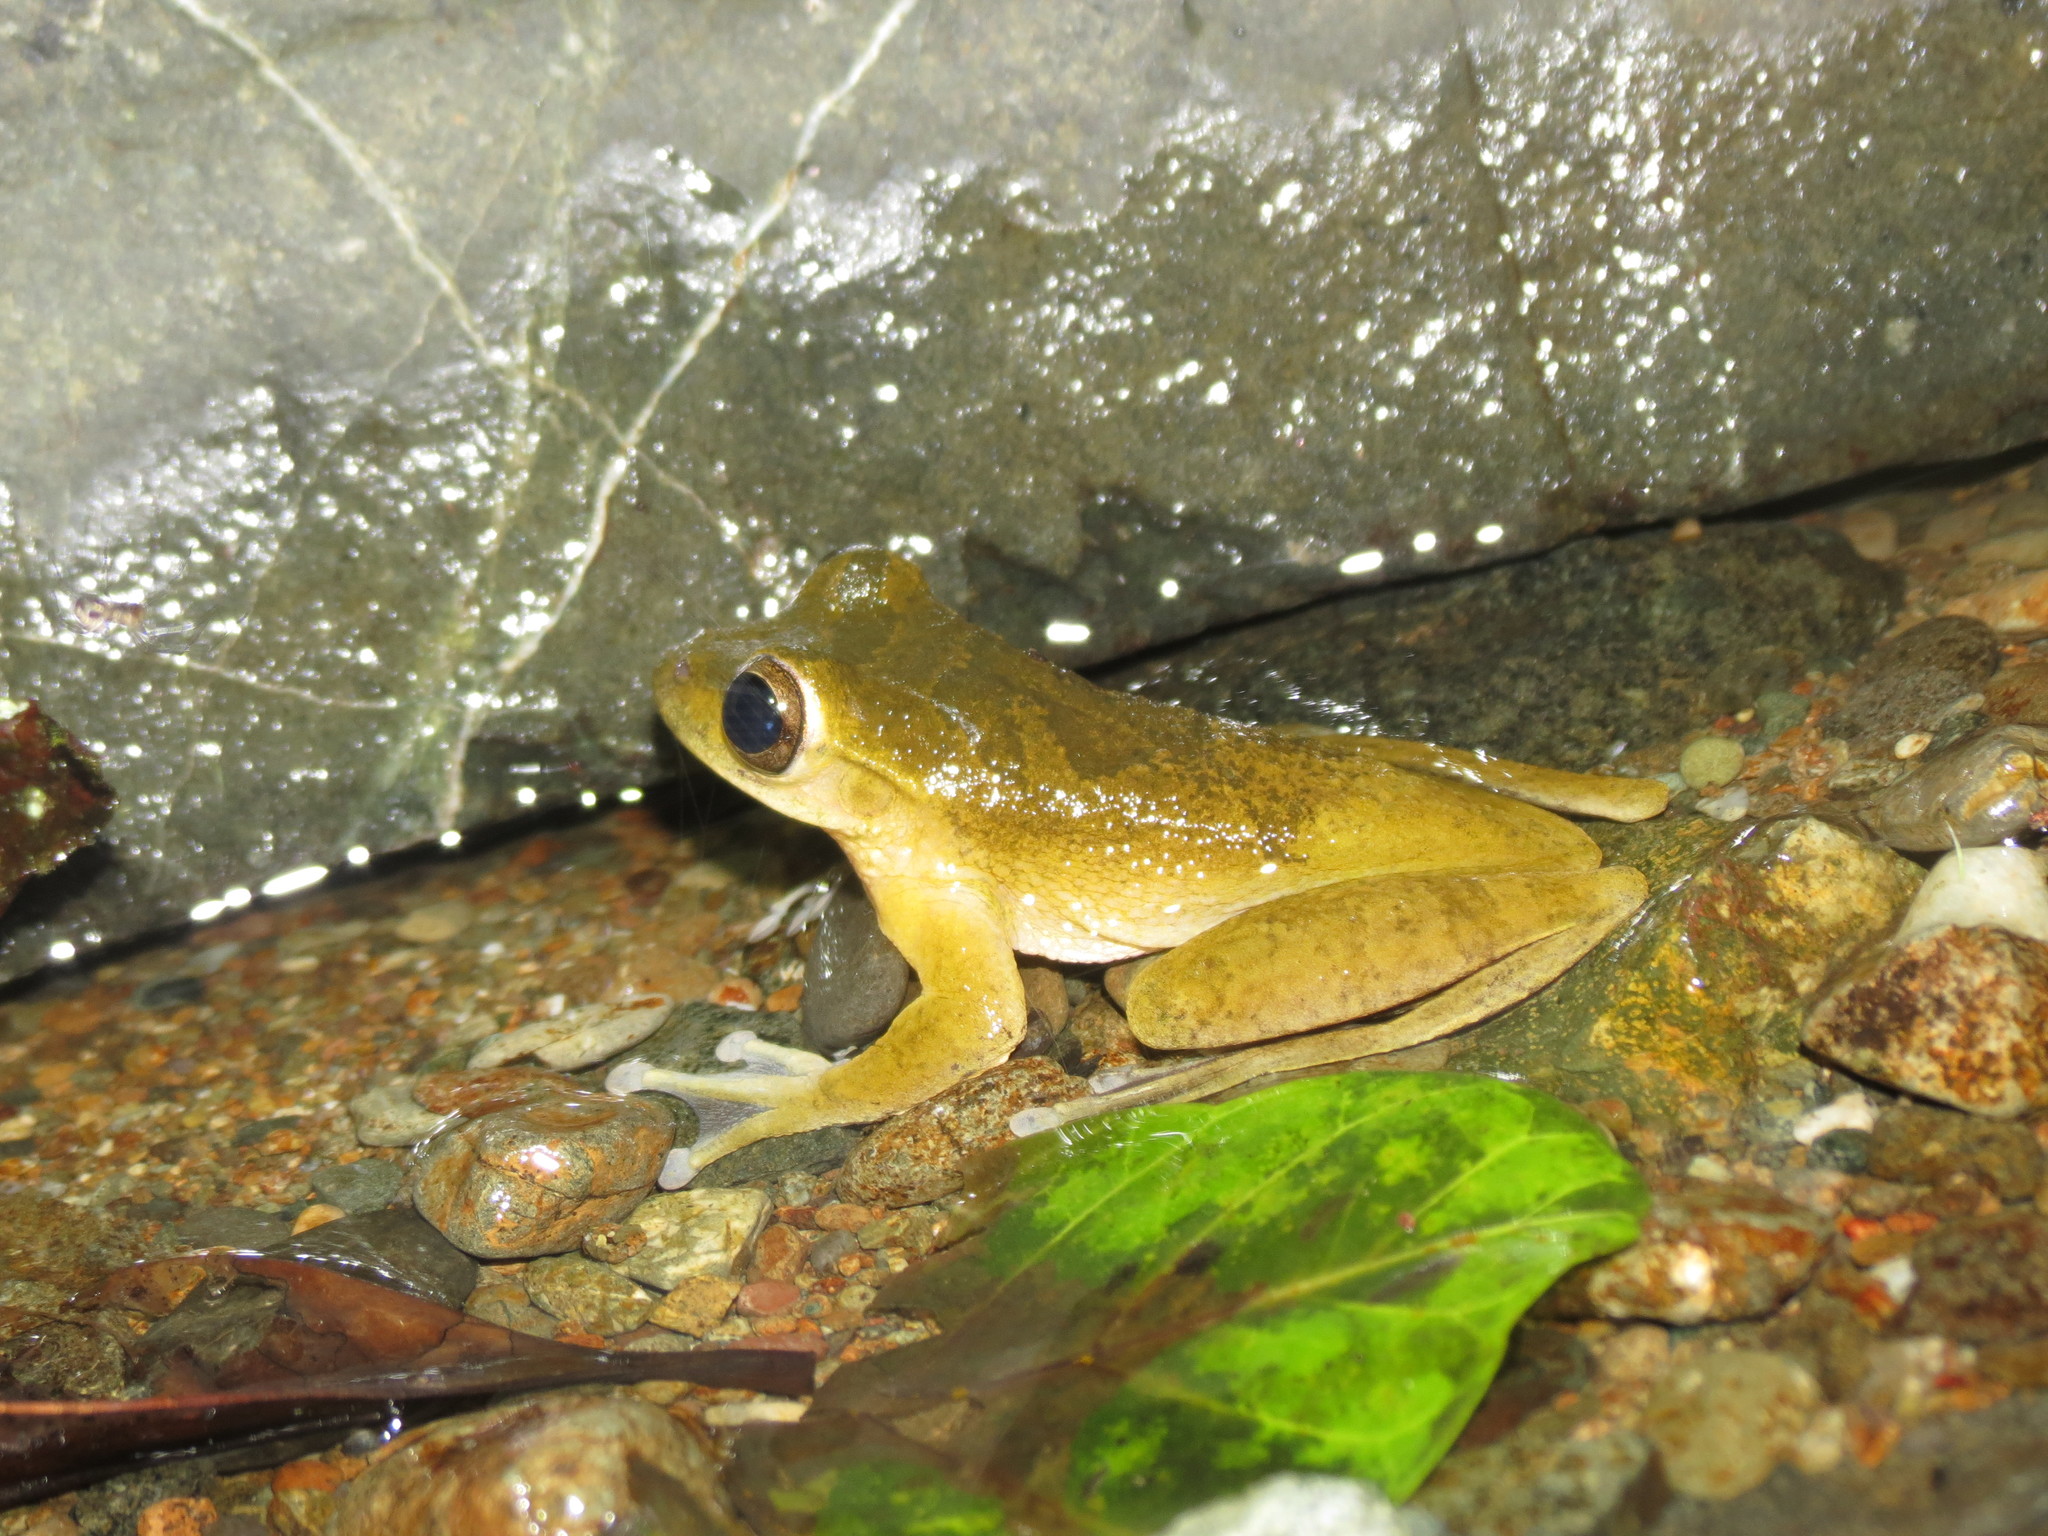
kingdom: Animalia
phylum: Chordata
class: Amphibia
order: Anura
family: Hylidae
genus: Smilisca
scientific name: Smilisca sordida
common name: Veragua cross-banded treefrog
